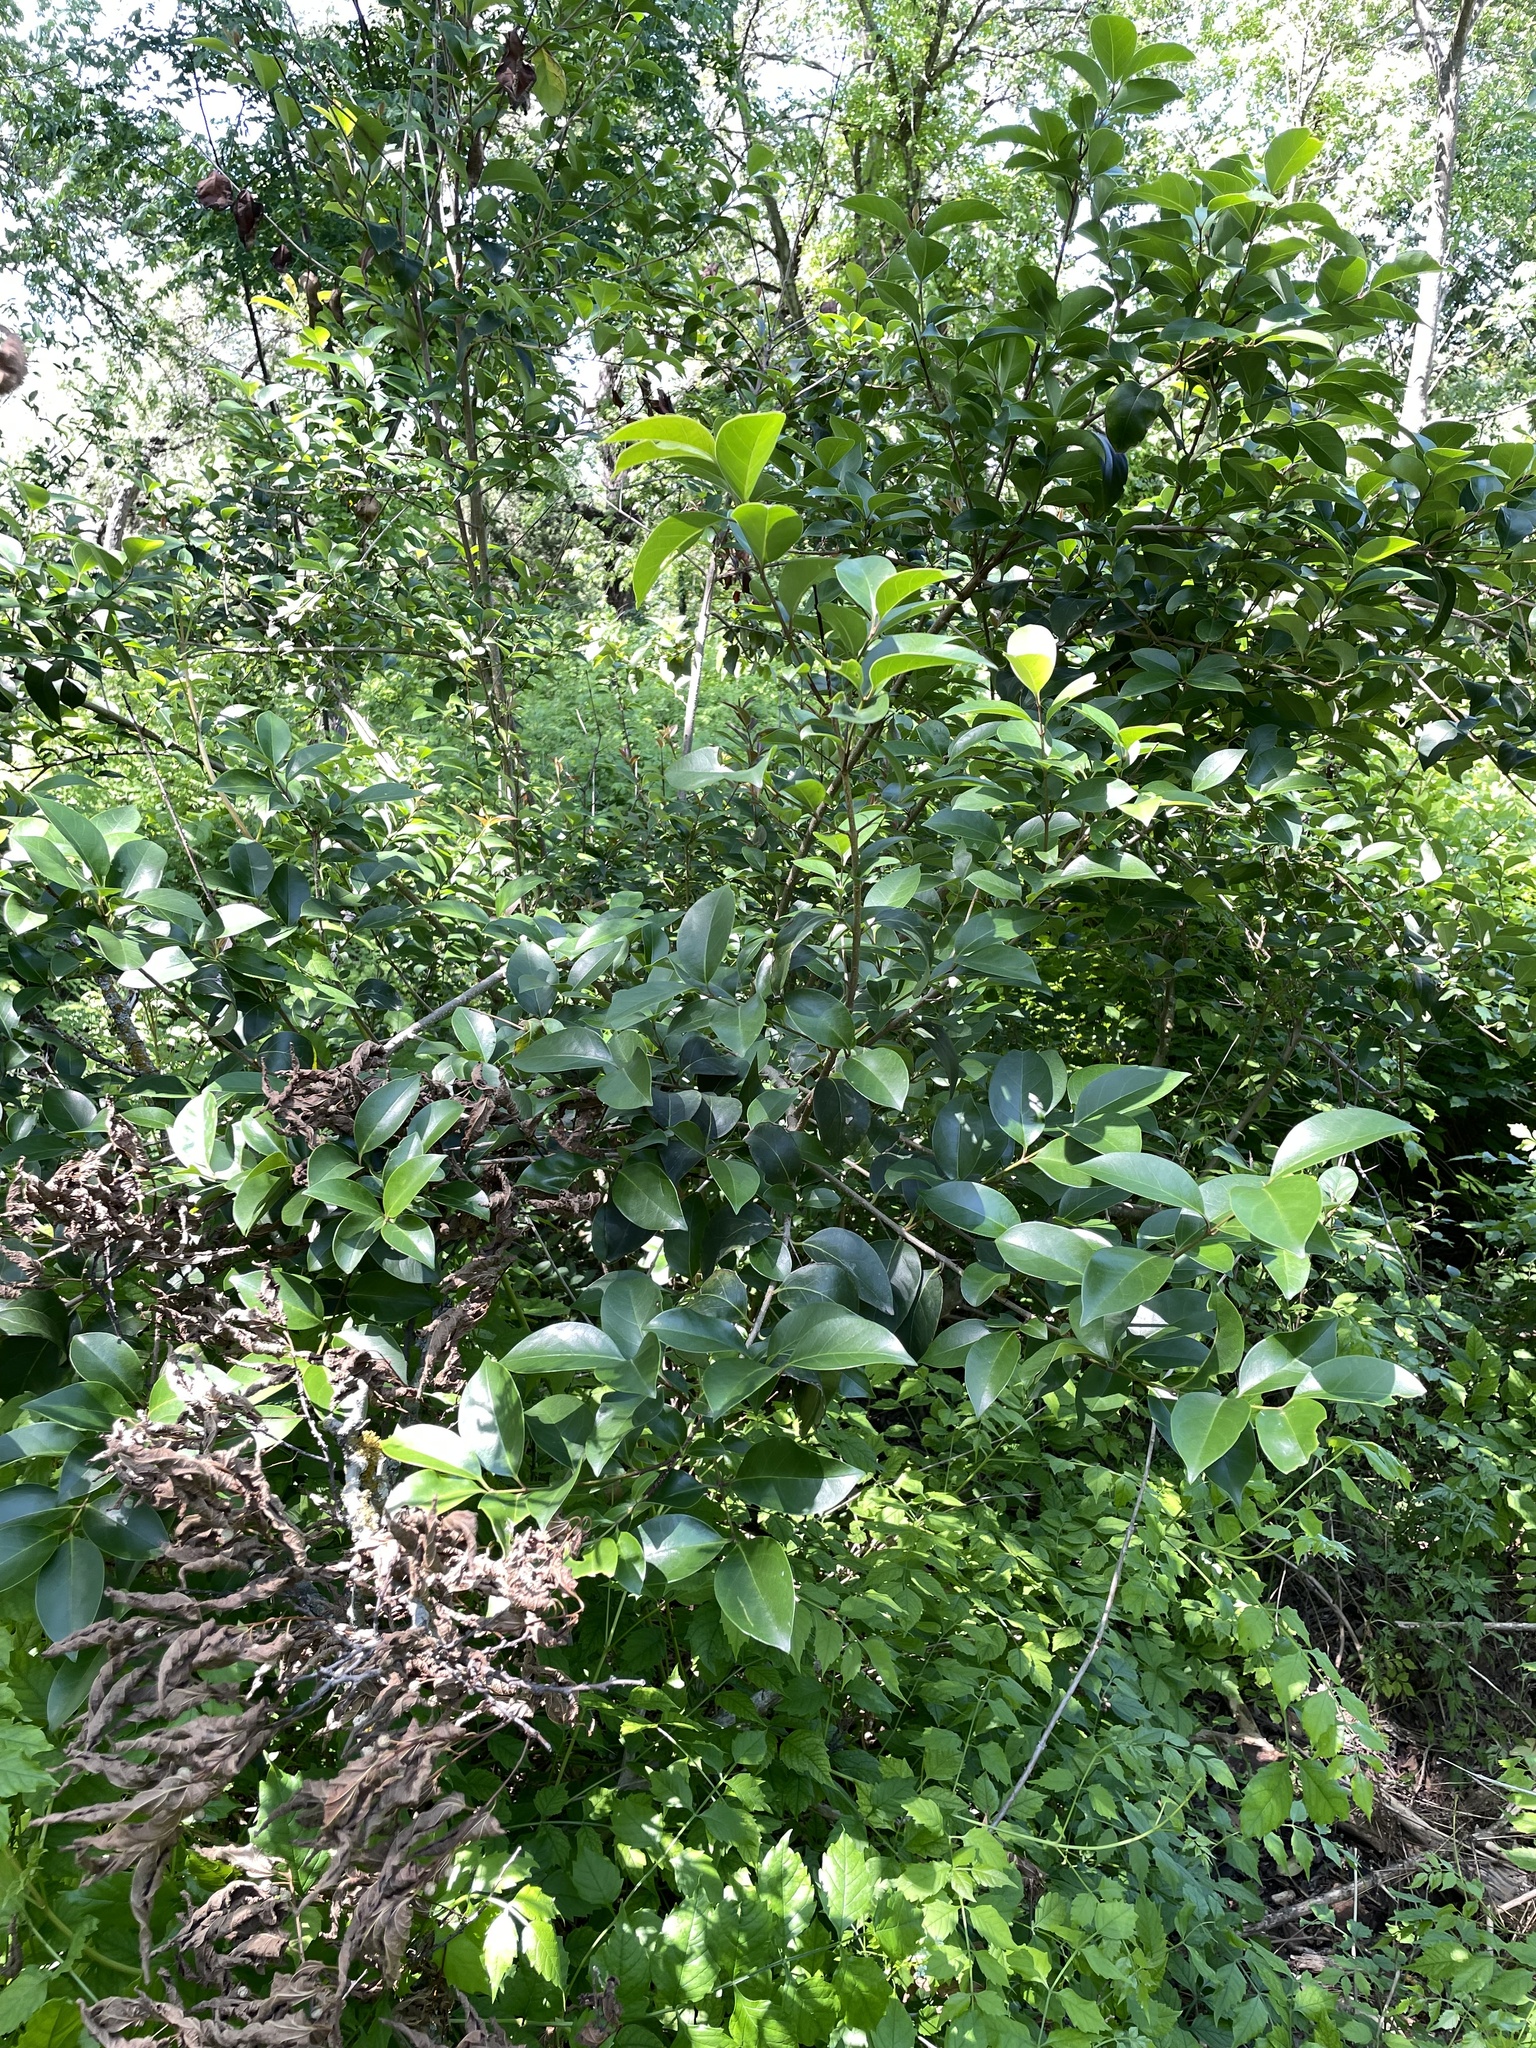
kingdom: Plantae
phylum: Tracheophyta
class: Magnoliopsida
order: Lamiales
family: Oleaceae
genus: Ligustrum
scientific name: Ligustrum lucidum
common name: Glossy privet
